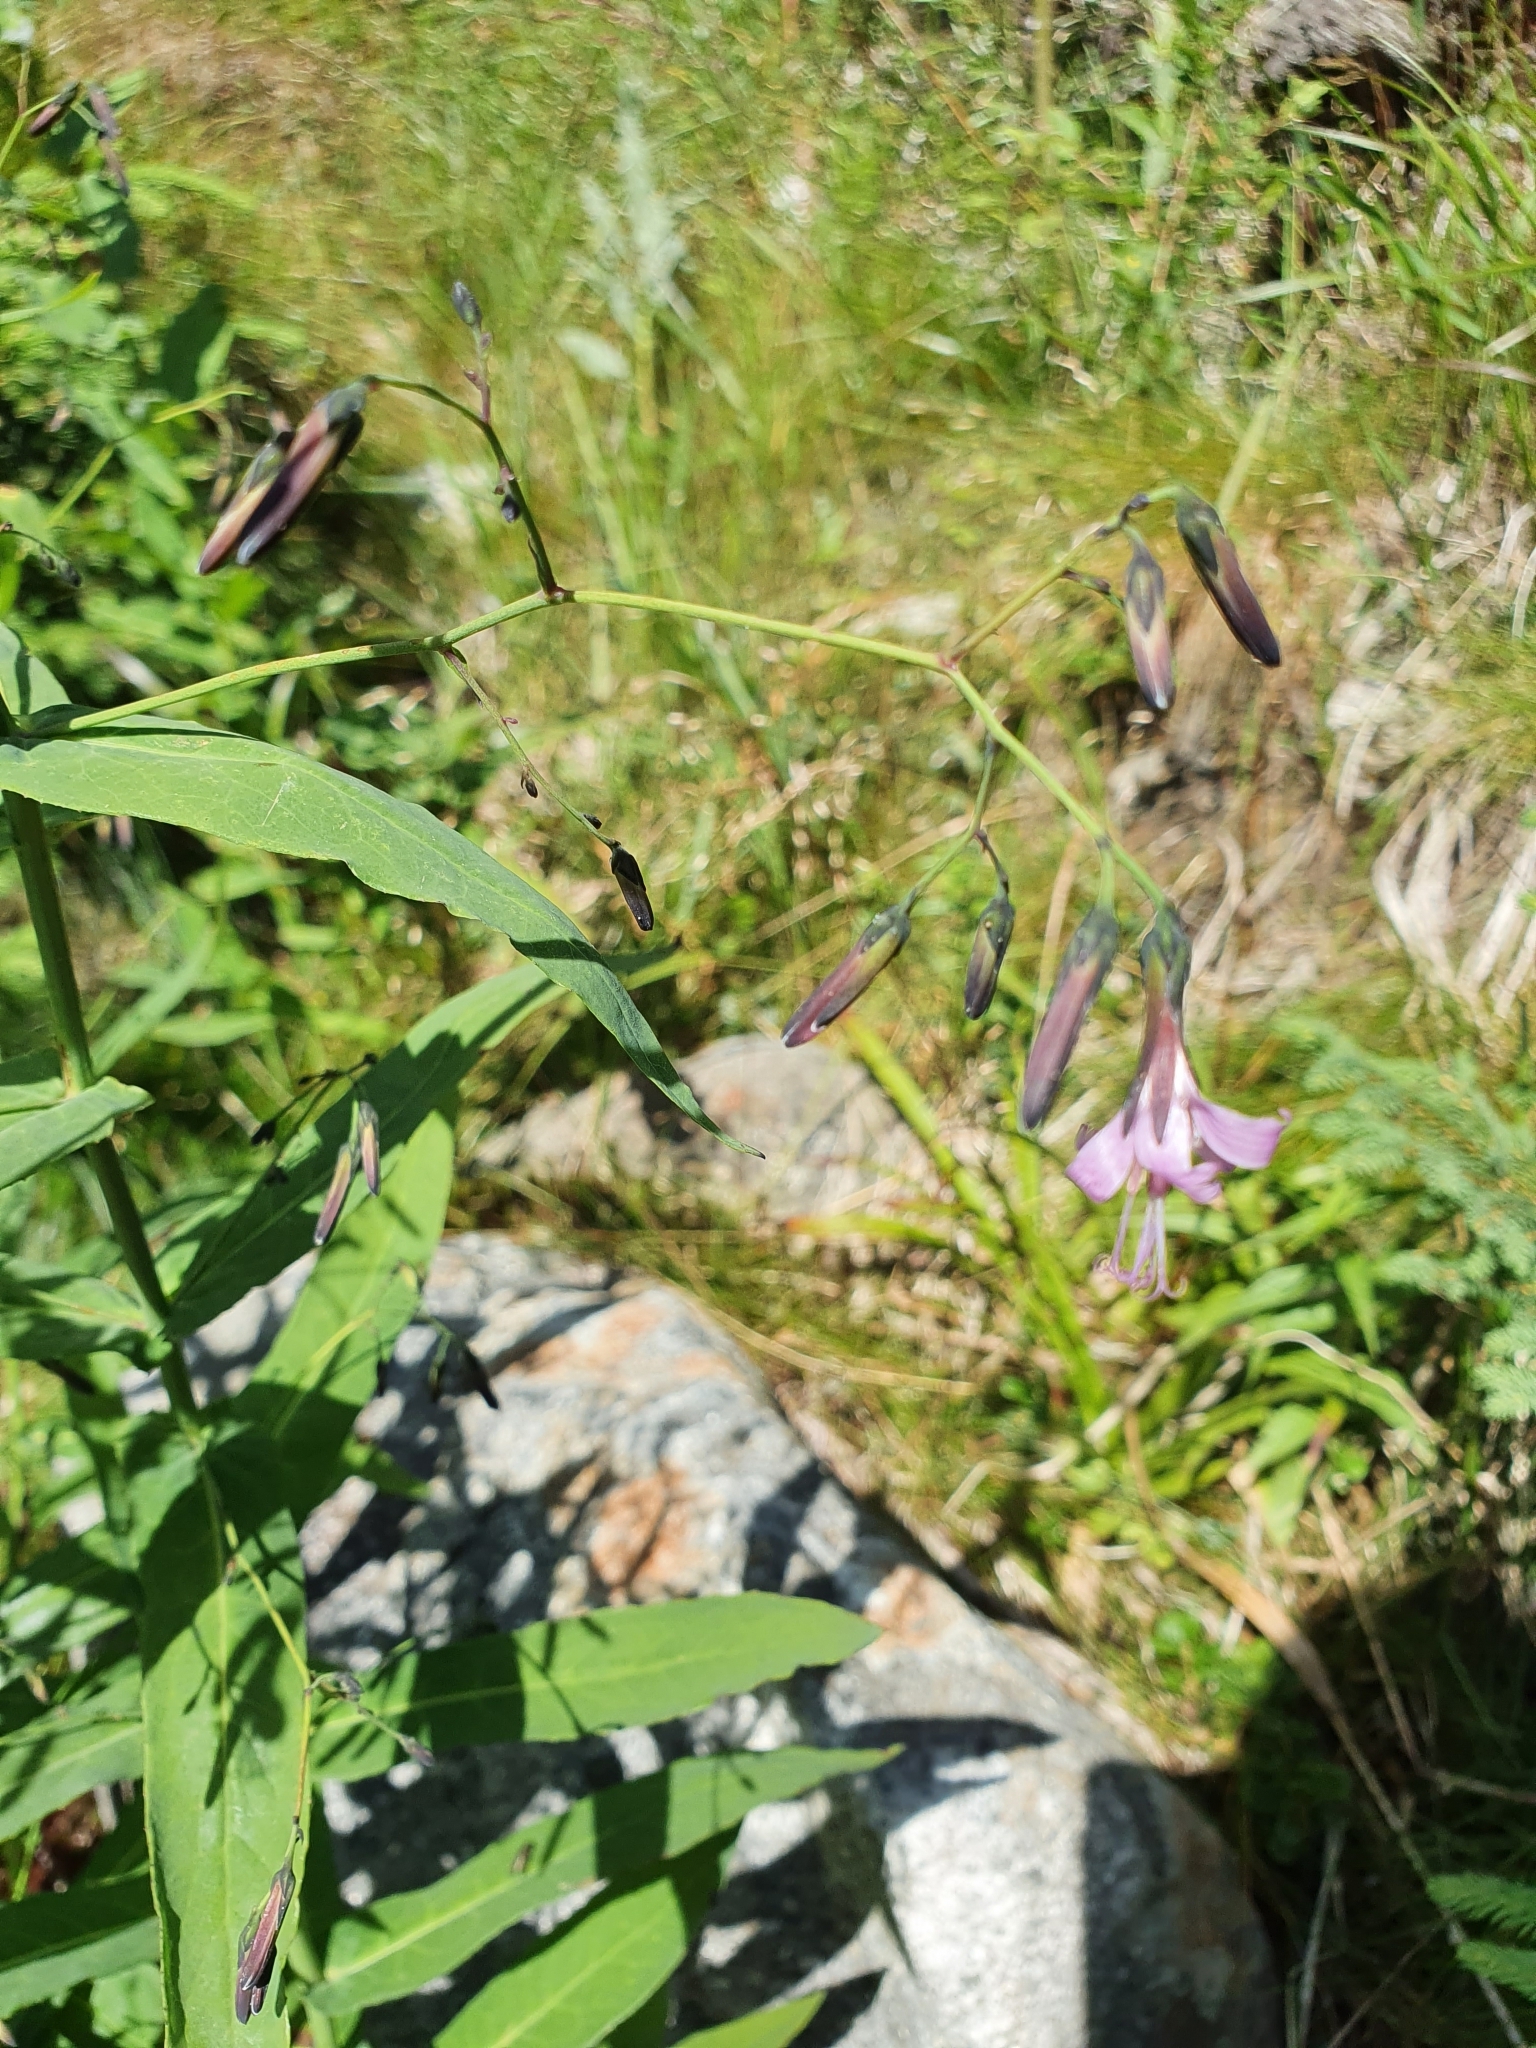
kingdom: Plantae
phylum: Tracheophyta
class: Magnoliopsida
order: Asterales
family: Asteraceae
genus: Prenanthes
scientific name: Prenanthes purpurea
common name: Purple lettuce
